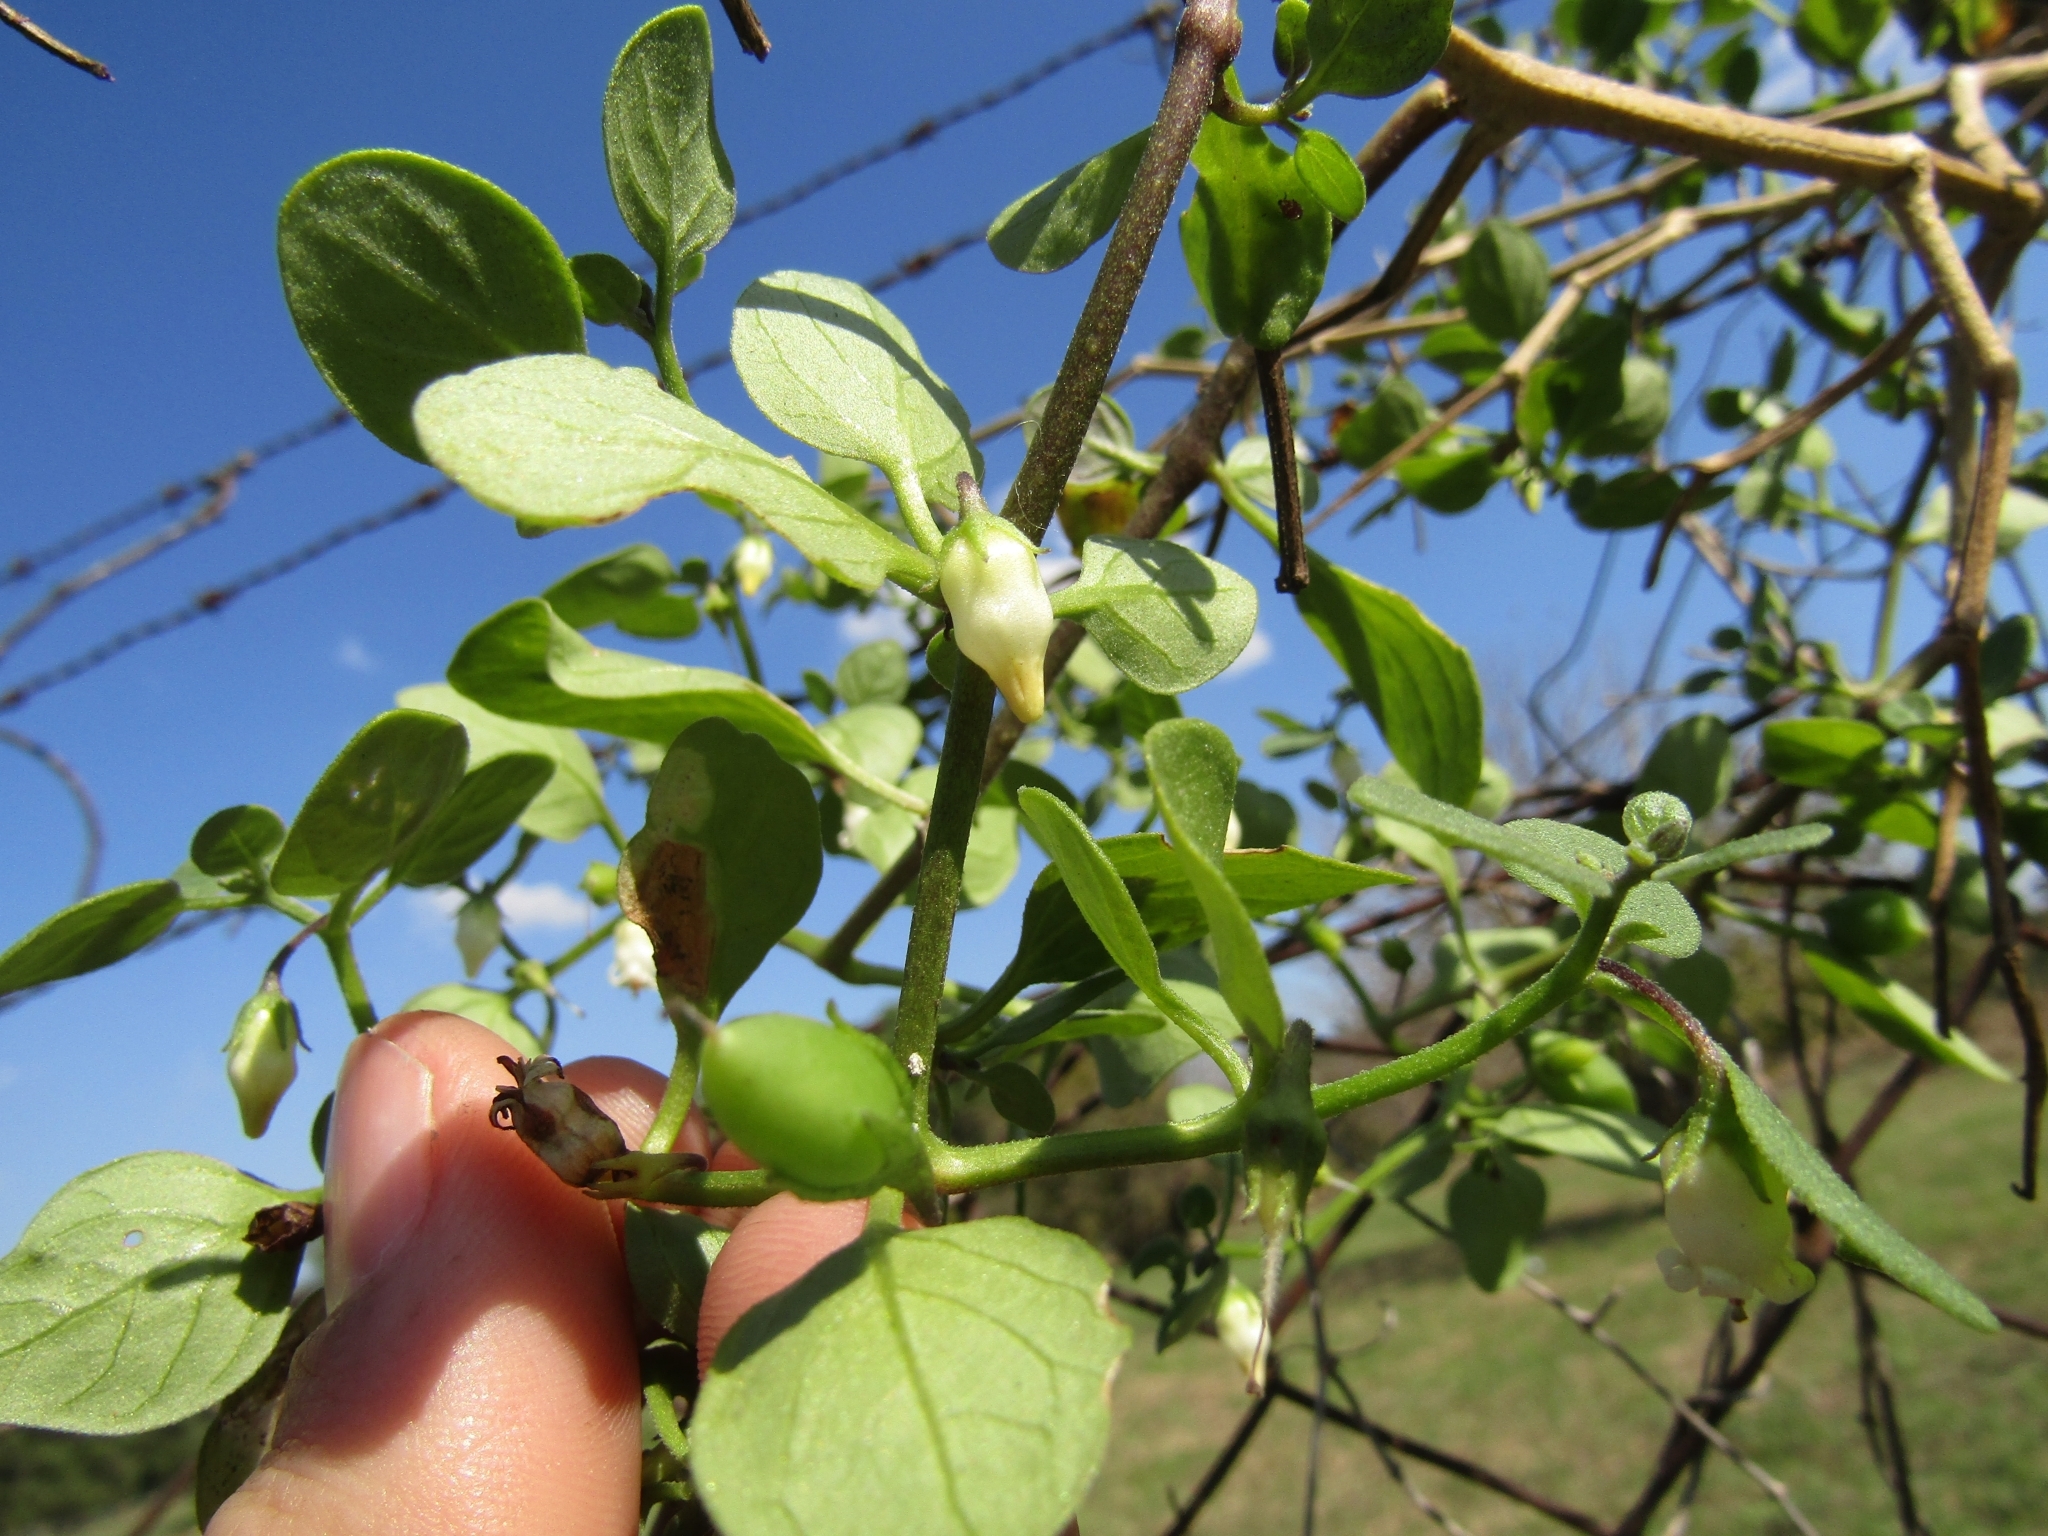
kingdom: Plantae
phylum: Tracheophyta
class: Magnoliopsida
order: Solanales
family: Solanaceae
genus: Salpichroa
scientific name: Salpichroa origanifolia
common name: Lily-of-the-valley-vine
